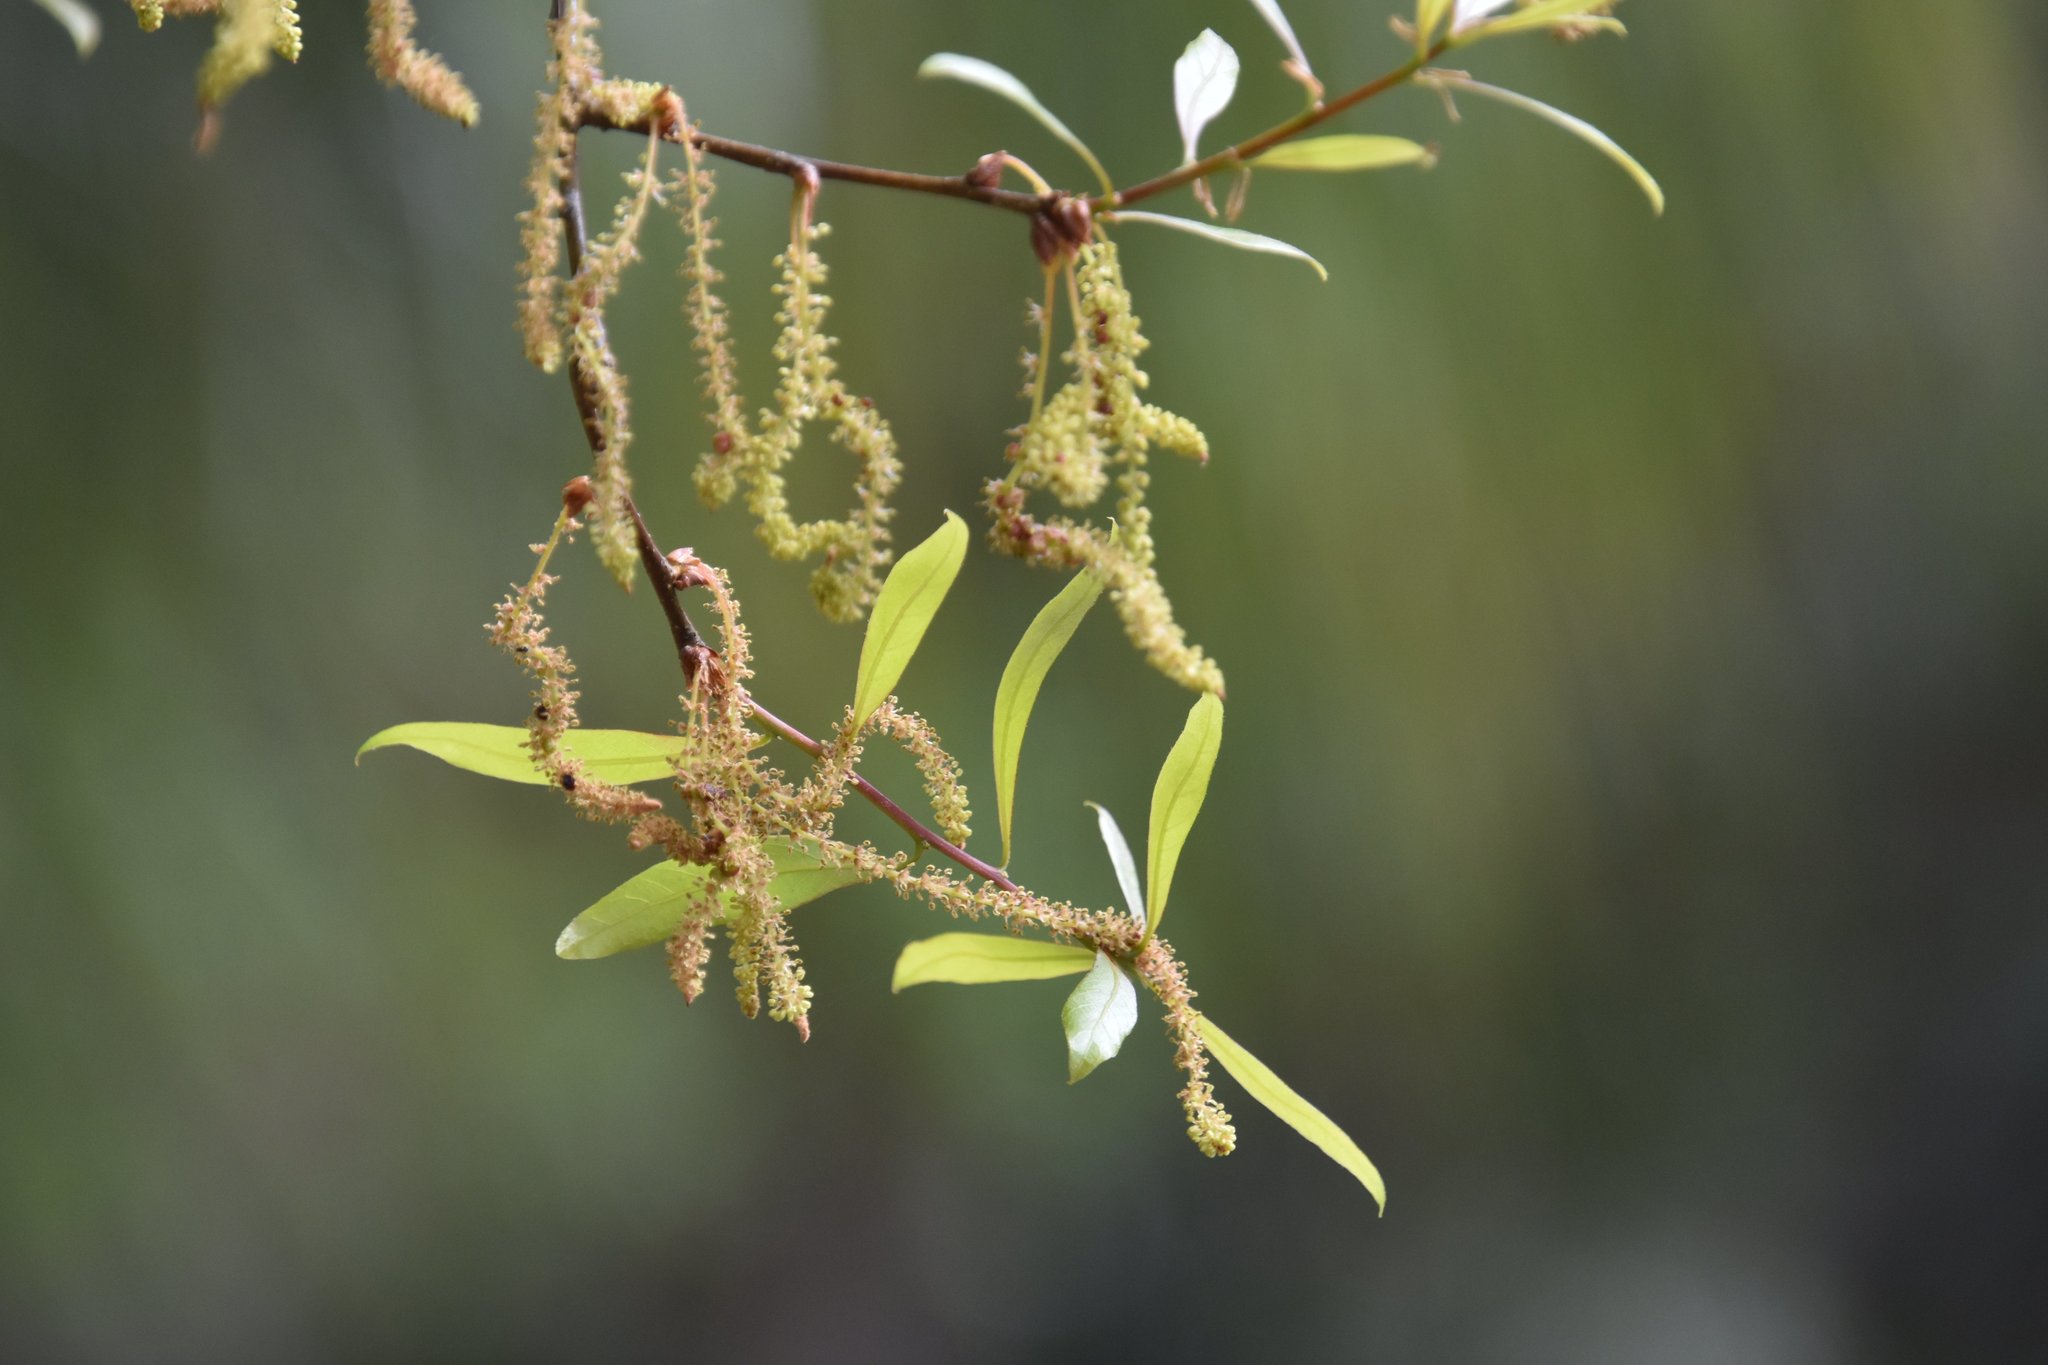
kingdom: Plantae
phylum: Tracheophyta
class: Magnoliopsida
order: Fagales
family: Fagaceae
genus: Quercus
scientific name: Quercus laurifolia
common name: Swamp laurel oak
